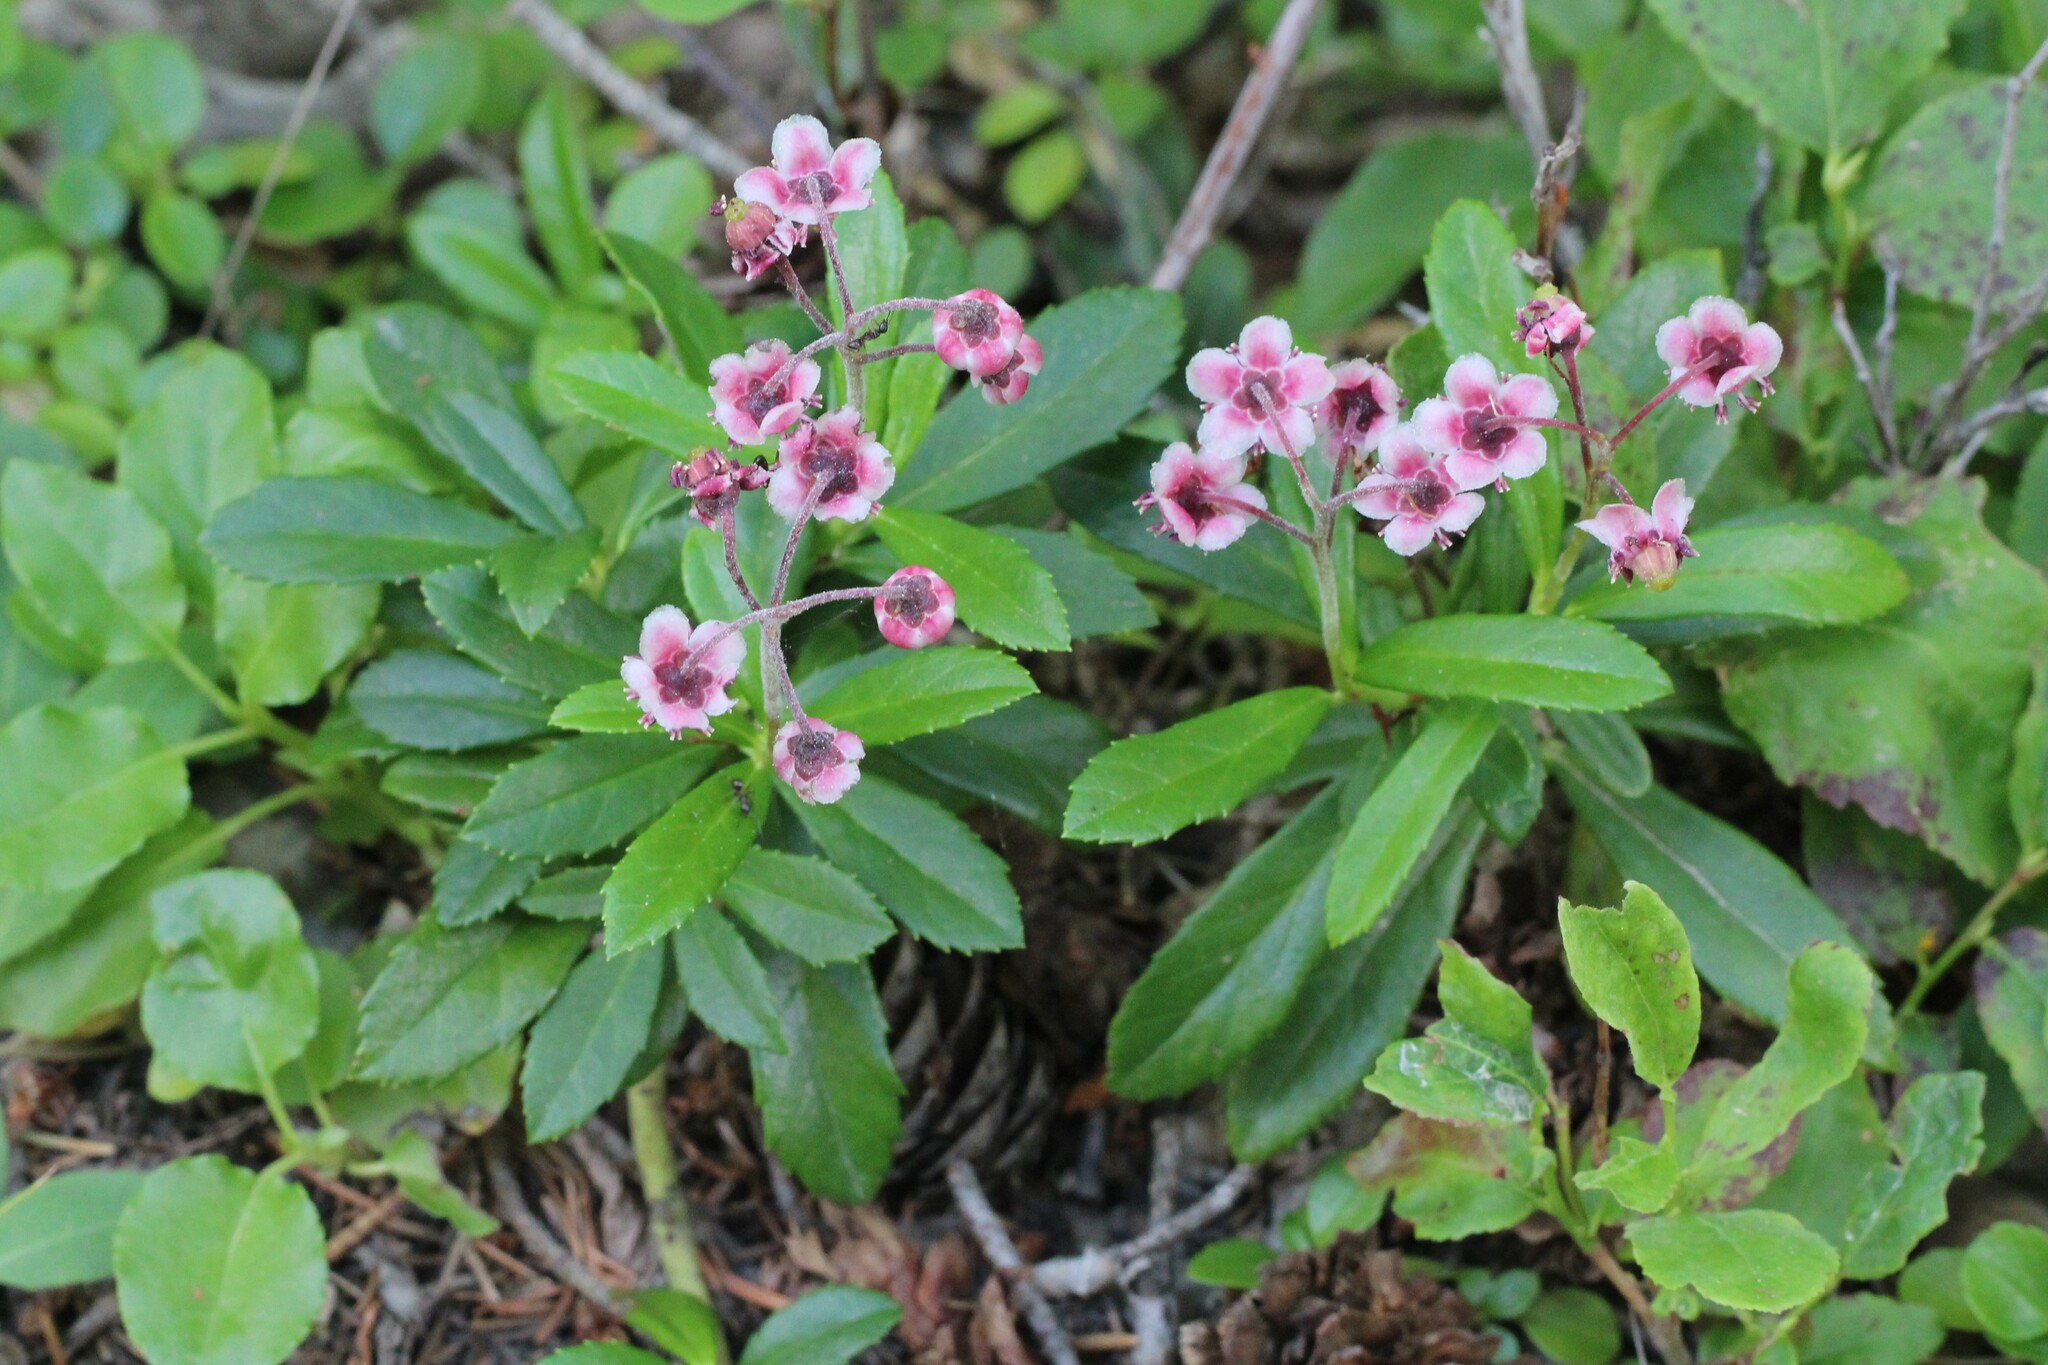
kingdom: Plantae
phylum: Tracheophyta
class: Magnoliopsida
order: Ericales
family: Ericaceae
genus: Chimaphila
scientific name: Chimaphila umbellata
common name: Pipsissewa
